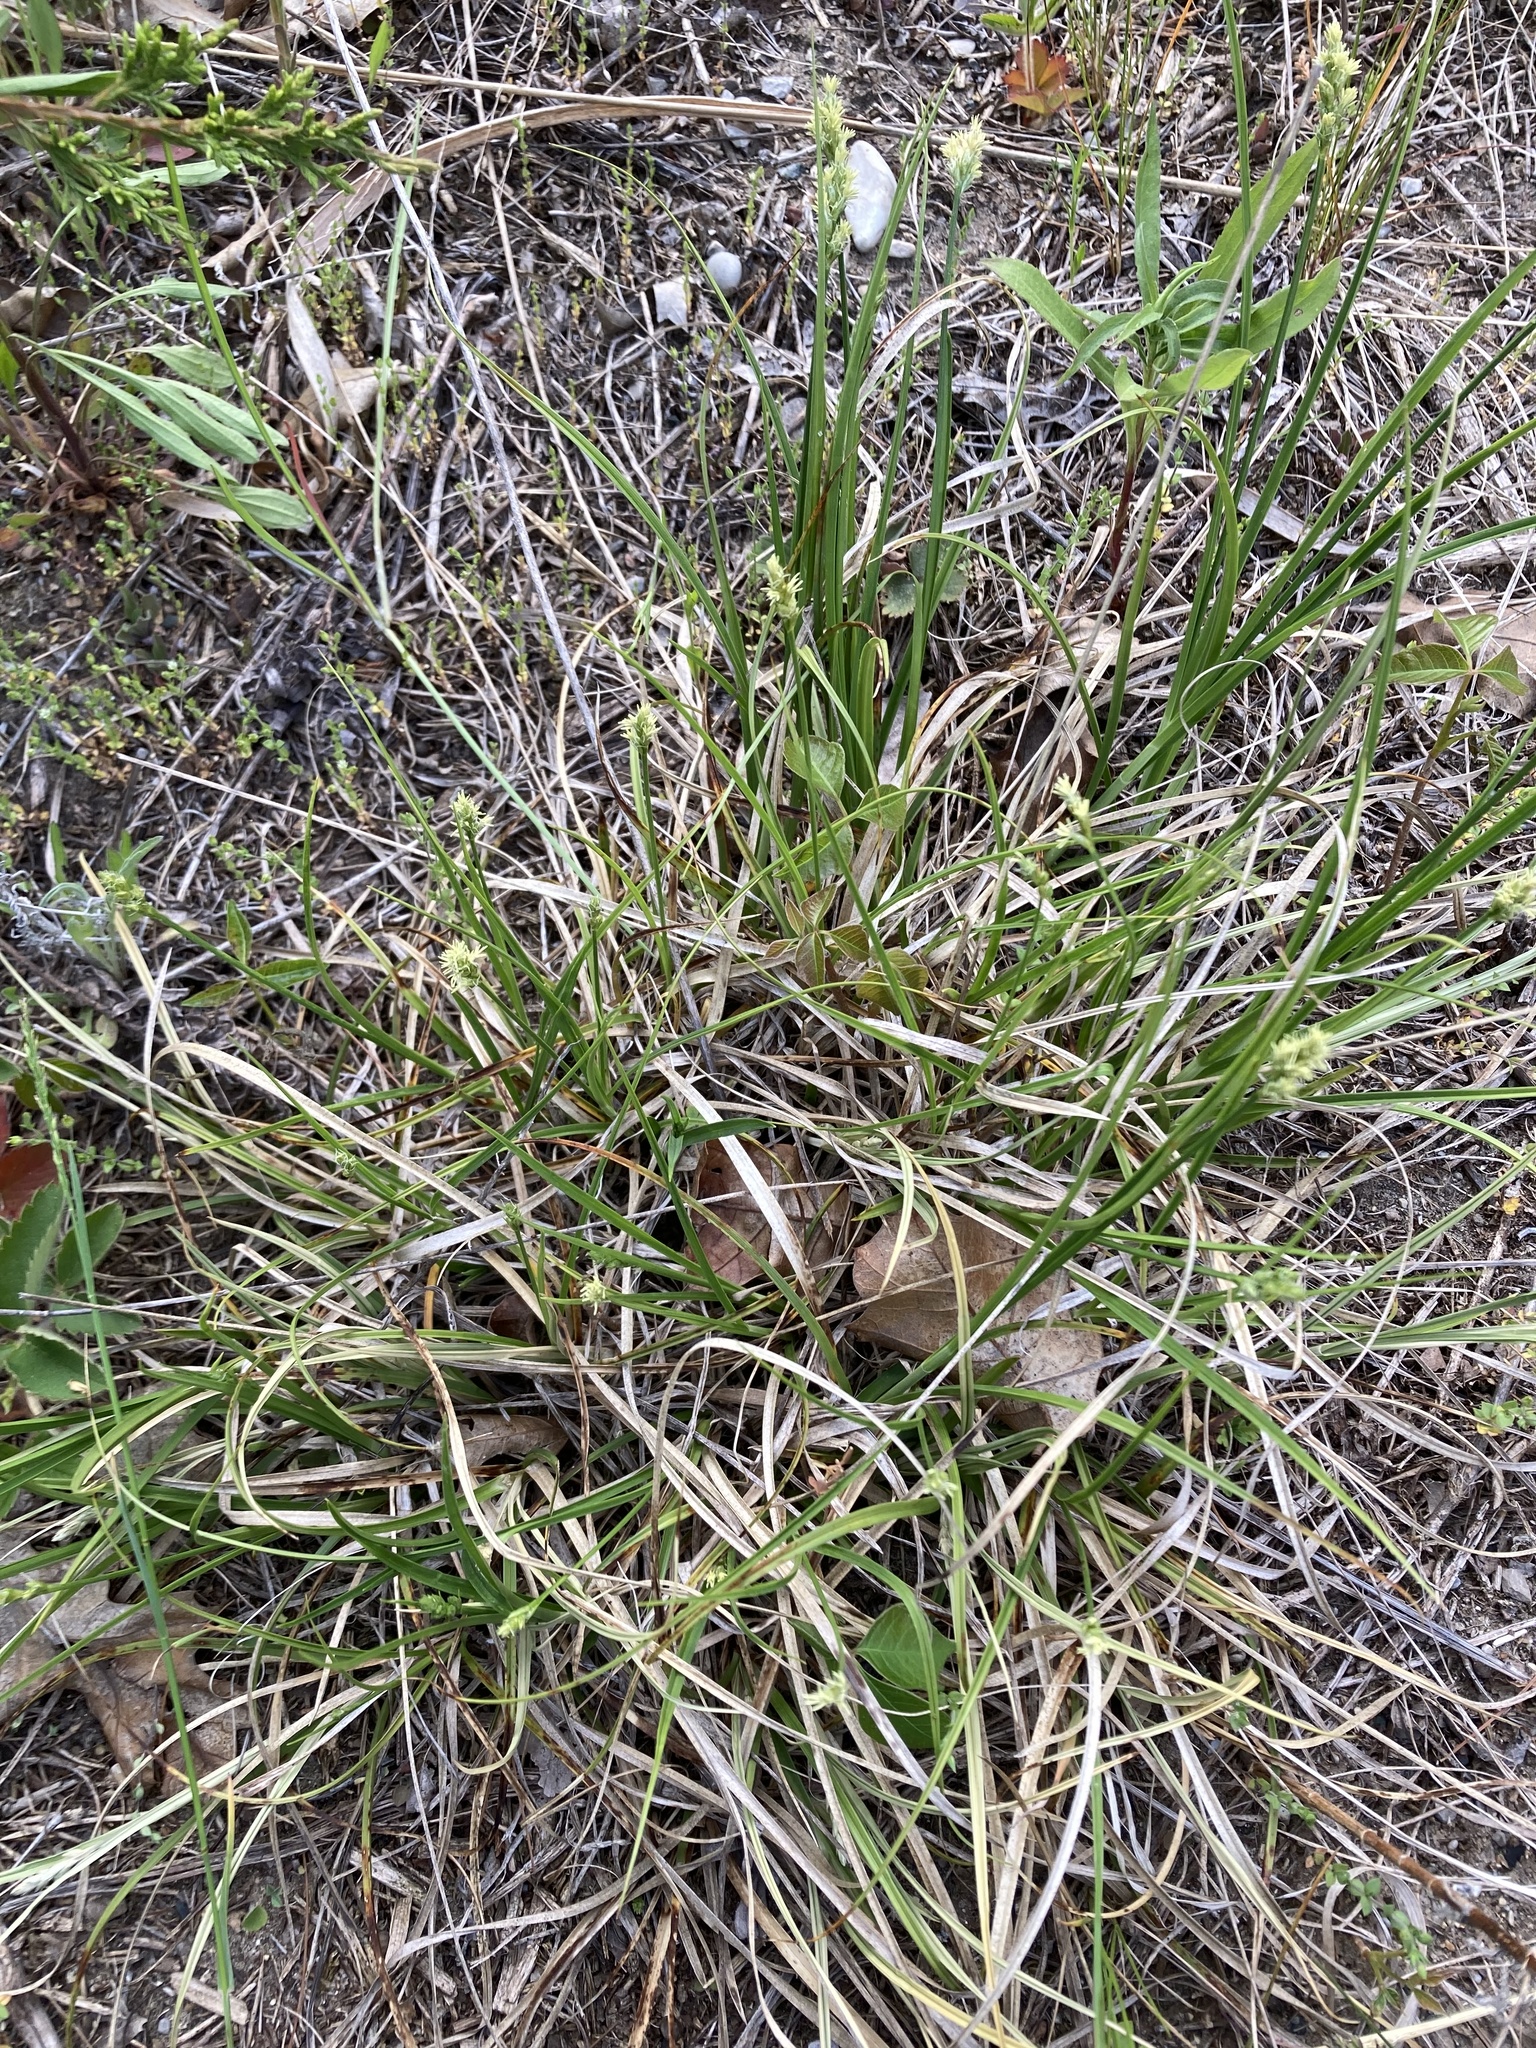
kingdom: Plantae
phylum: Tracheophyta
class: Liliopsida
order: Poales
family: Cyperaceae
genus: Carex
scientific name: Carex muehlenbergii
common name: Muhlenberg's bracted sedge
